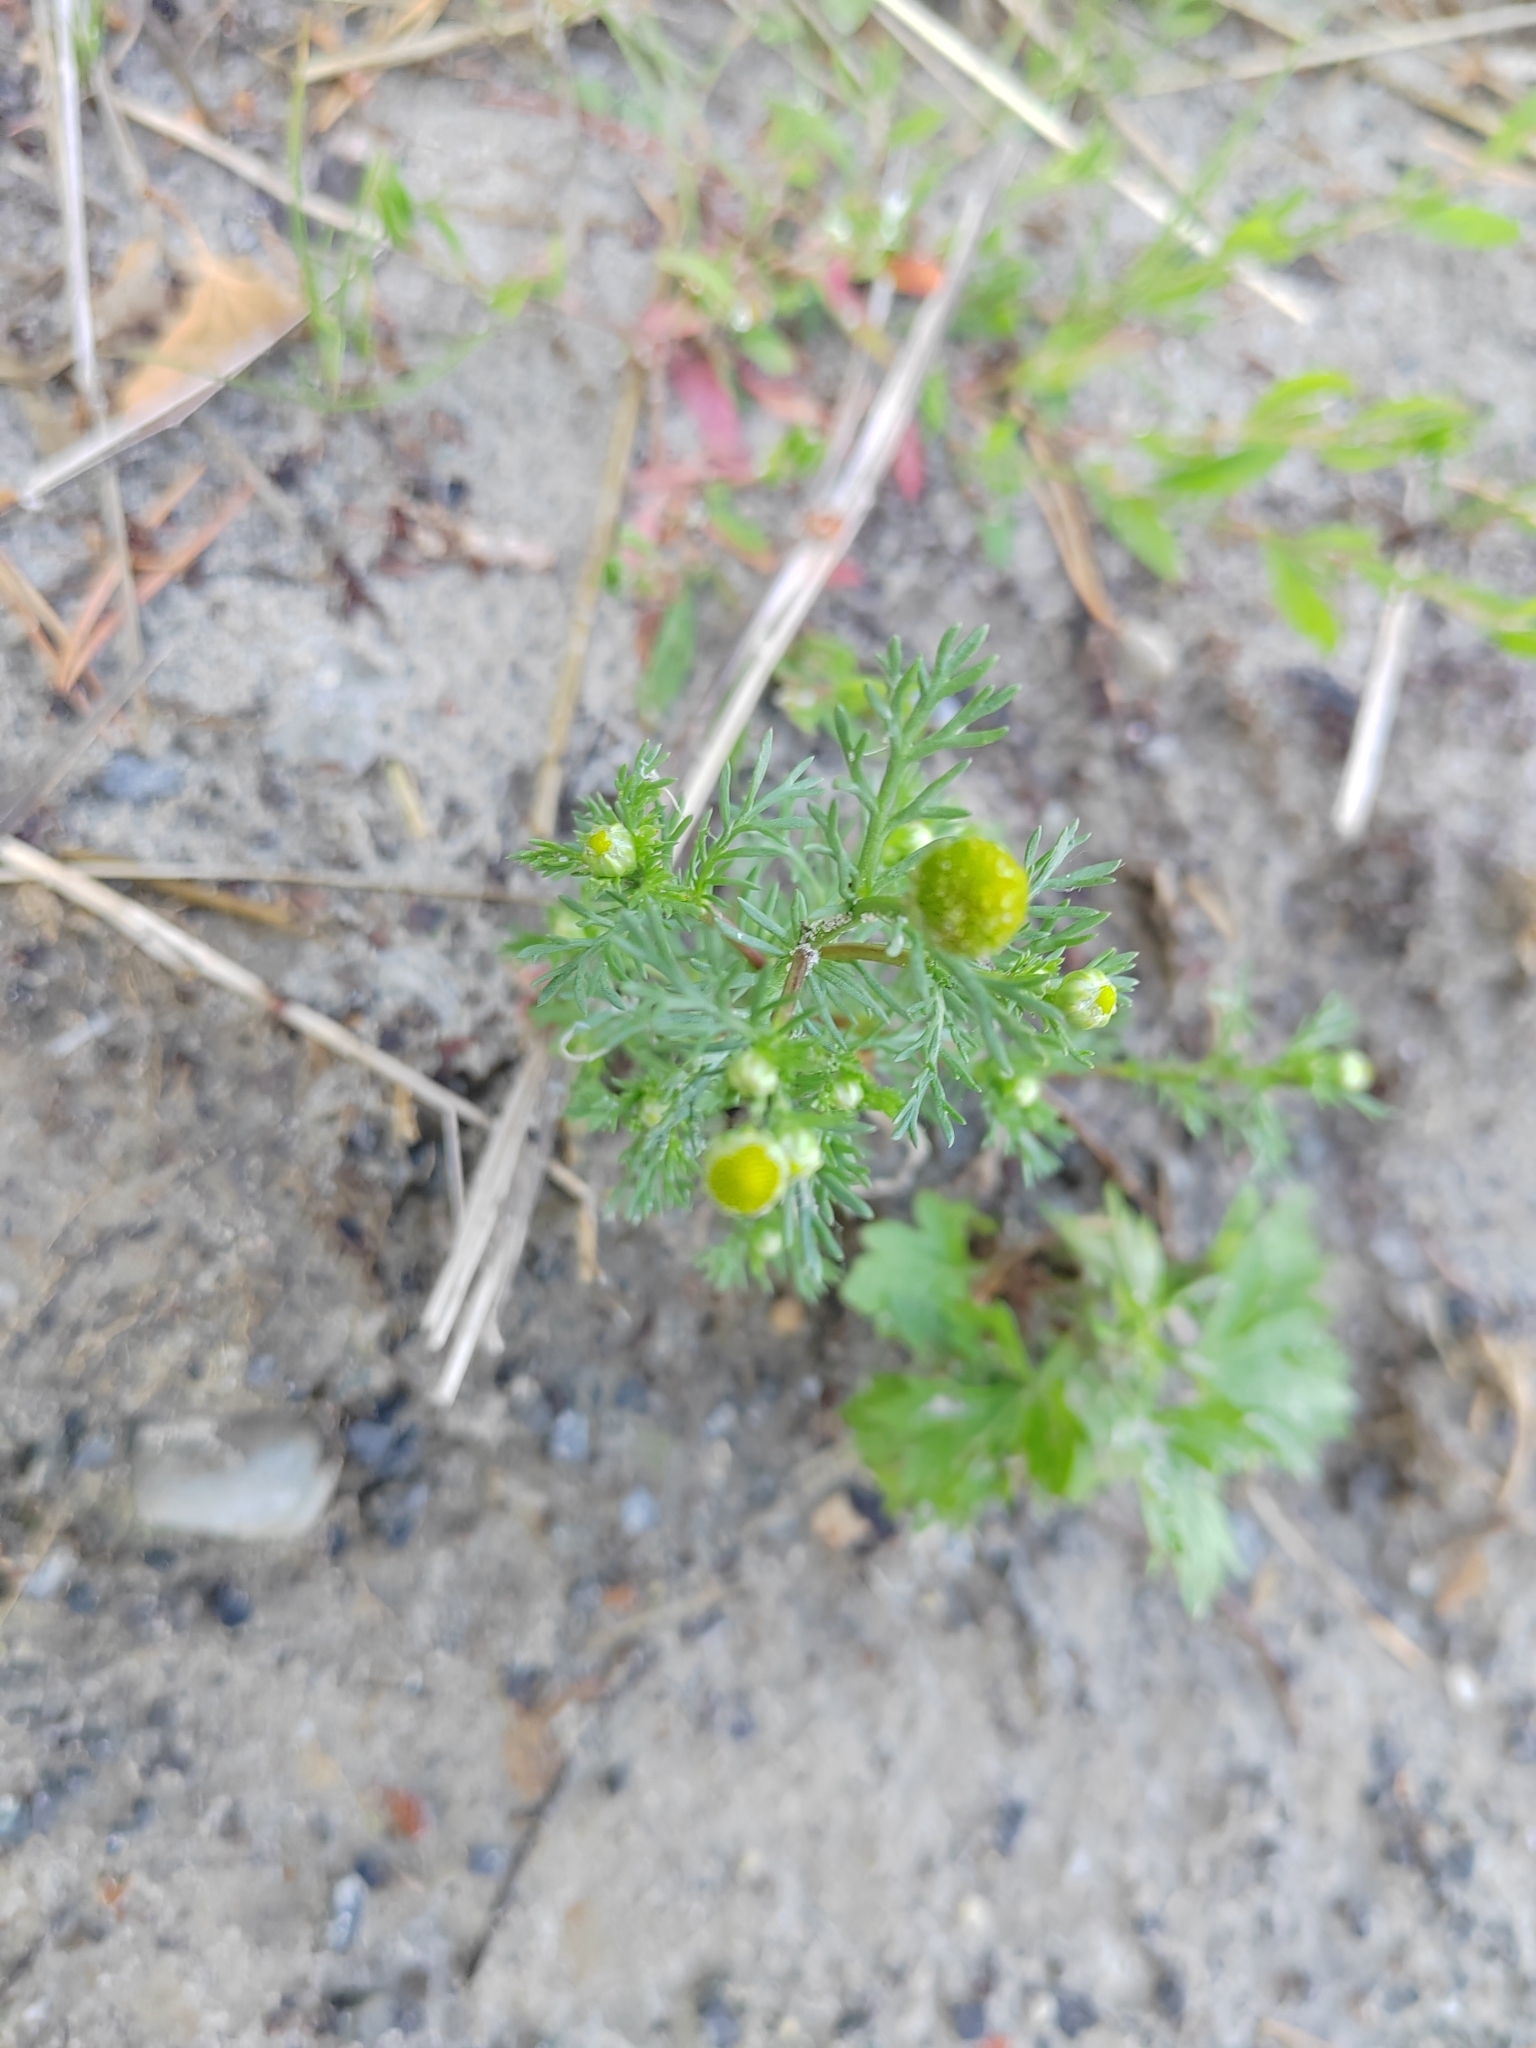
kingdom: Plantae
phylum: Tracheophyta
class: Magnoliopsida
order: Asterales
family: Asteraceae
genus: Matricaria
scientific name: Matricaria discoidea
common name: Disc mayweed
